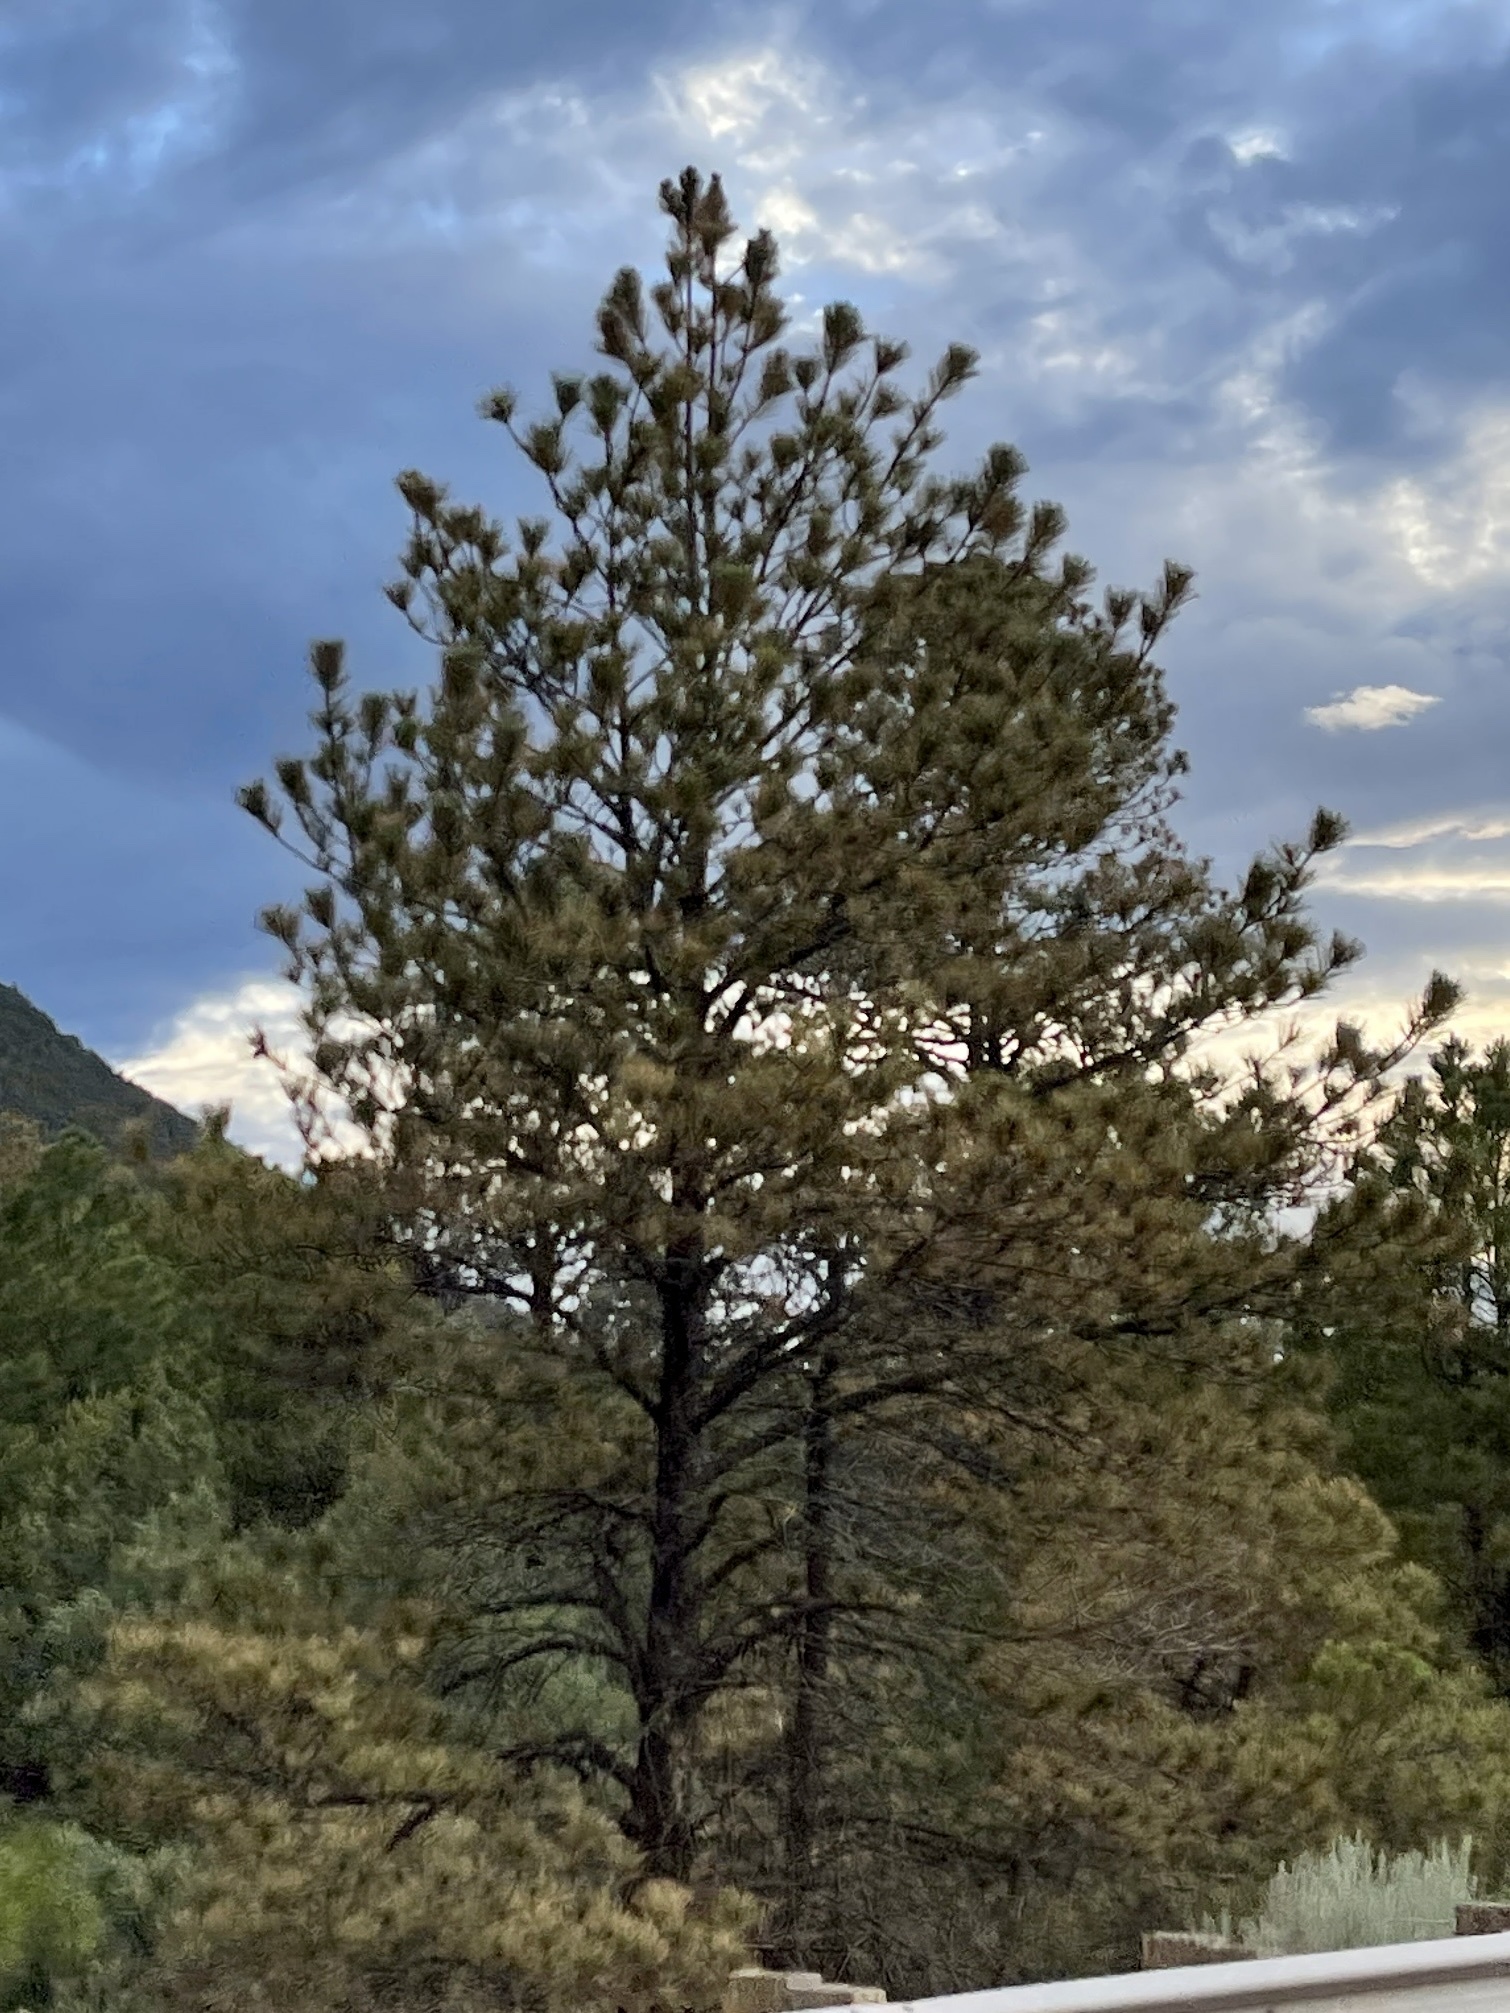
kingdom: Plantae
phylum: Tracheophyta
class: Pinopsida
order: Pinales
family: Pinaceae
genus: Pinus
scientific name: Pinus ponderosa
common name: Western yellow-pine
